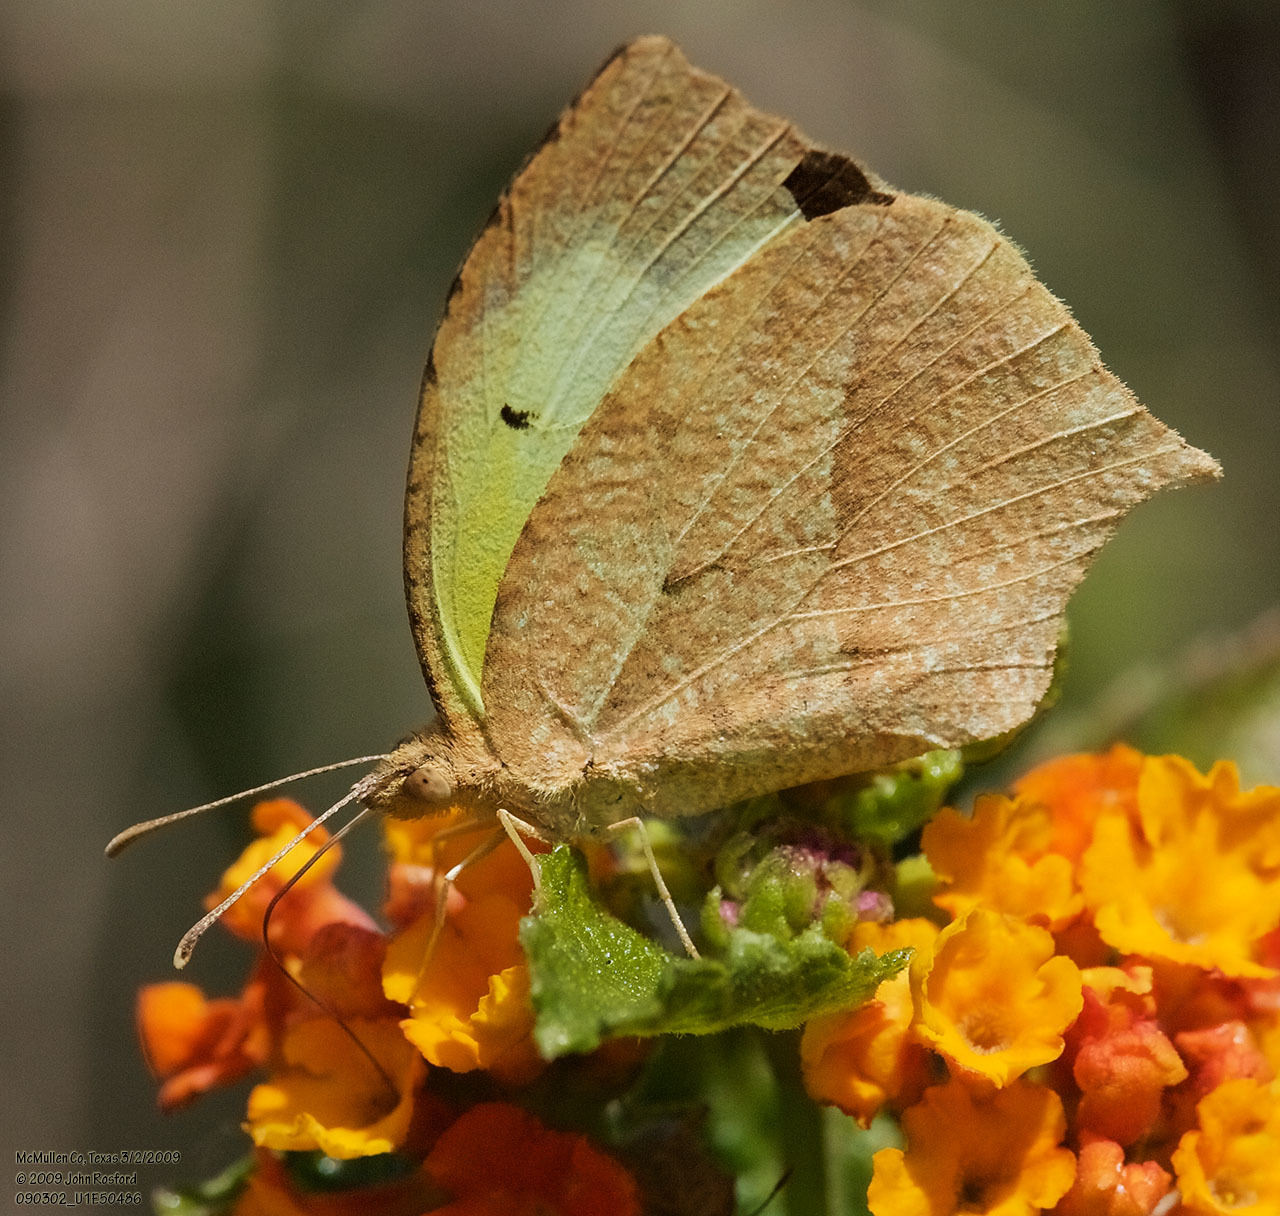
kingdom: Animalia
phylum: Arthropoda
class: Insecta
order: Lepidoptera
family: Pieridae
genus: Abaeis
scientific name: Abaeis mexicana
